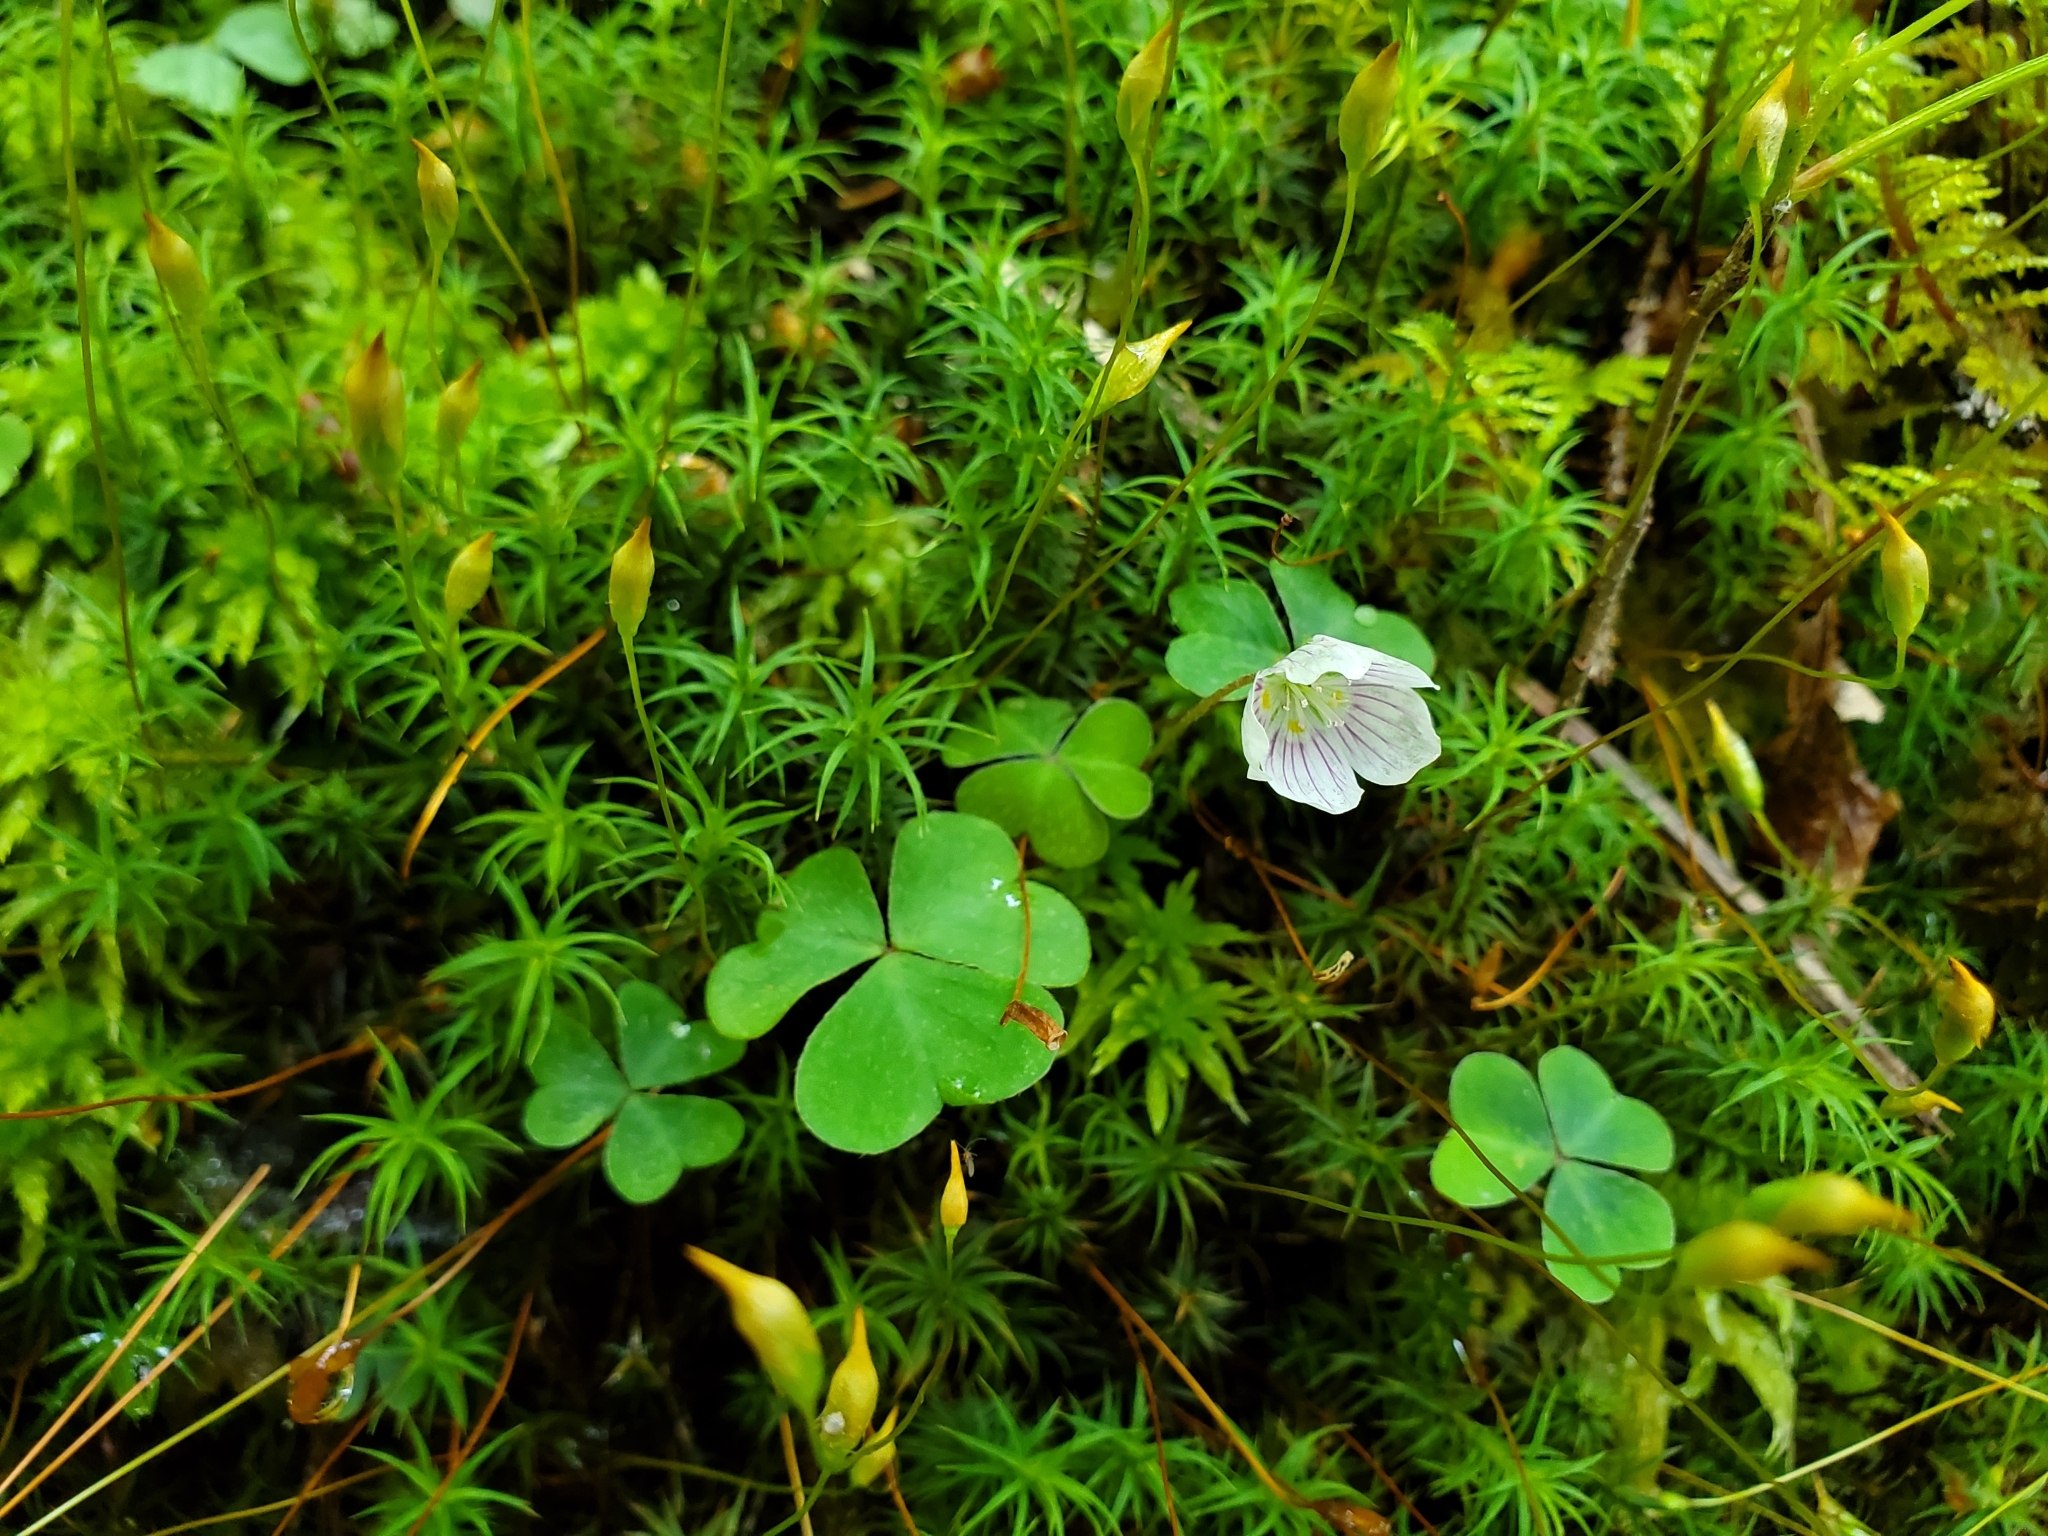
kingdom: Plantae
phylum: Tracheophyta
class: Magnoliopsida
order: Oxalidales
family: Oxalidaceae
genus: Oxalis
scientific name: Oxalis montana
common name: American wood-sorrel
